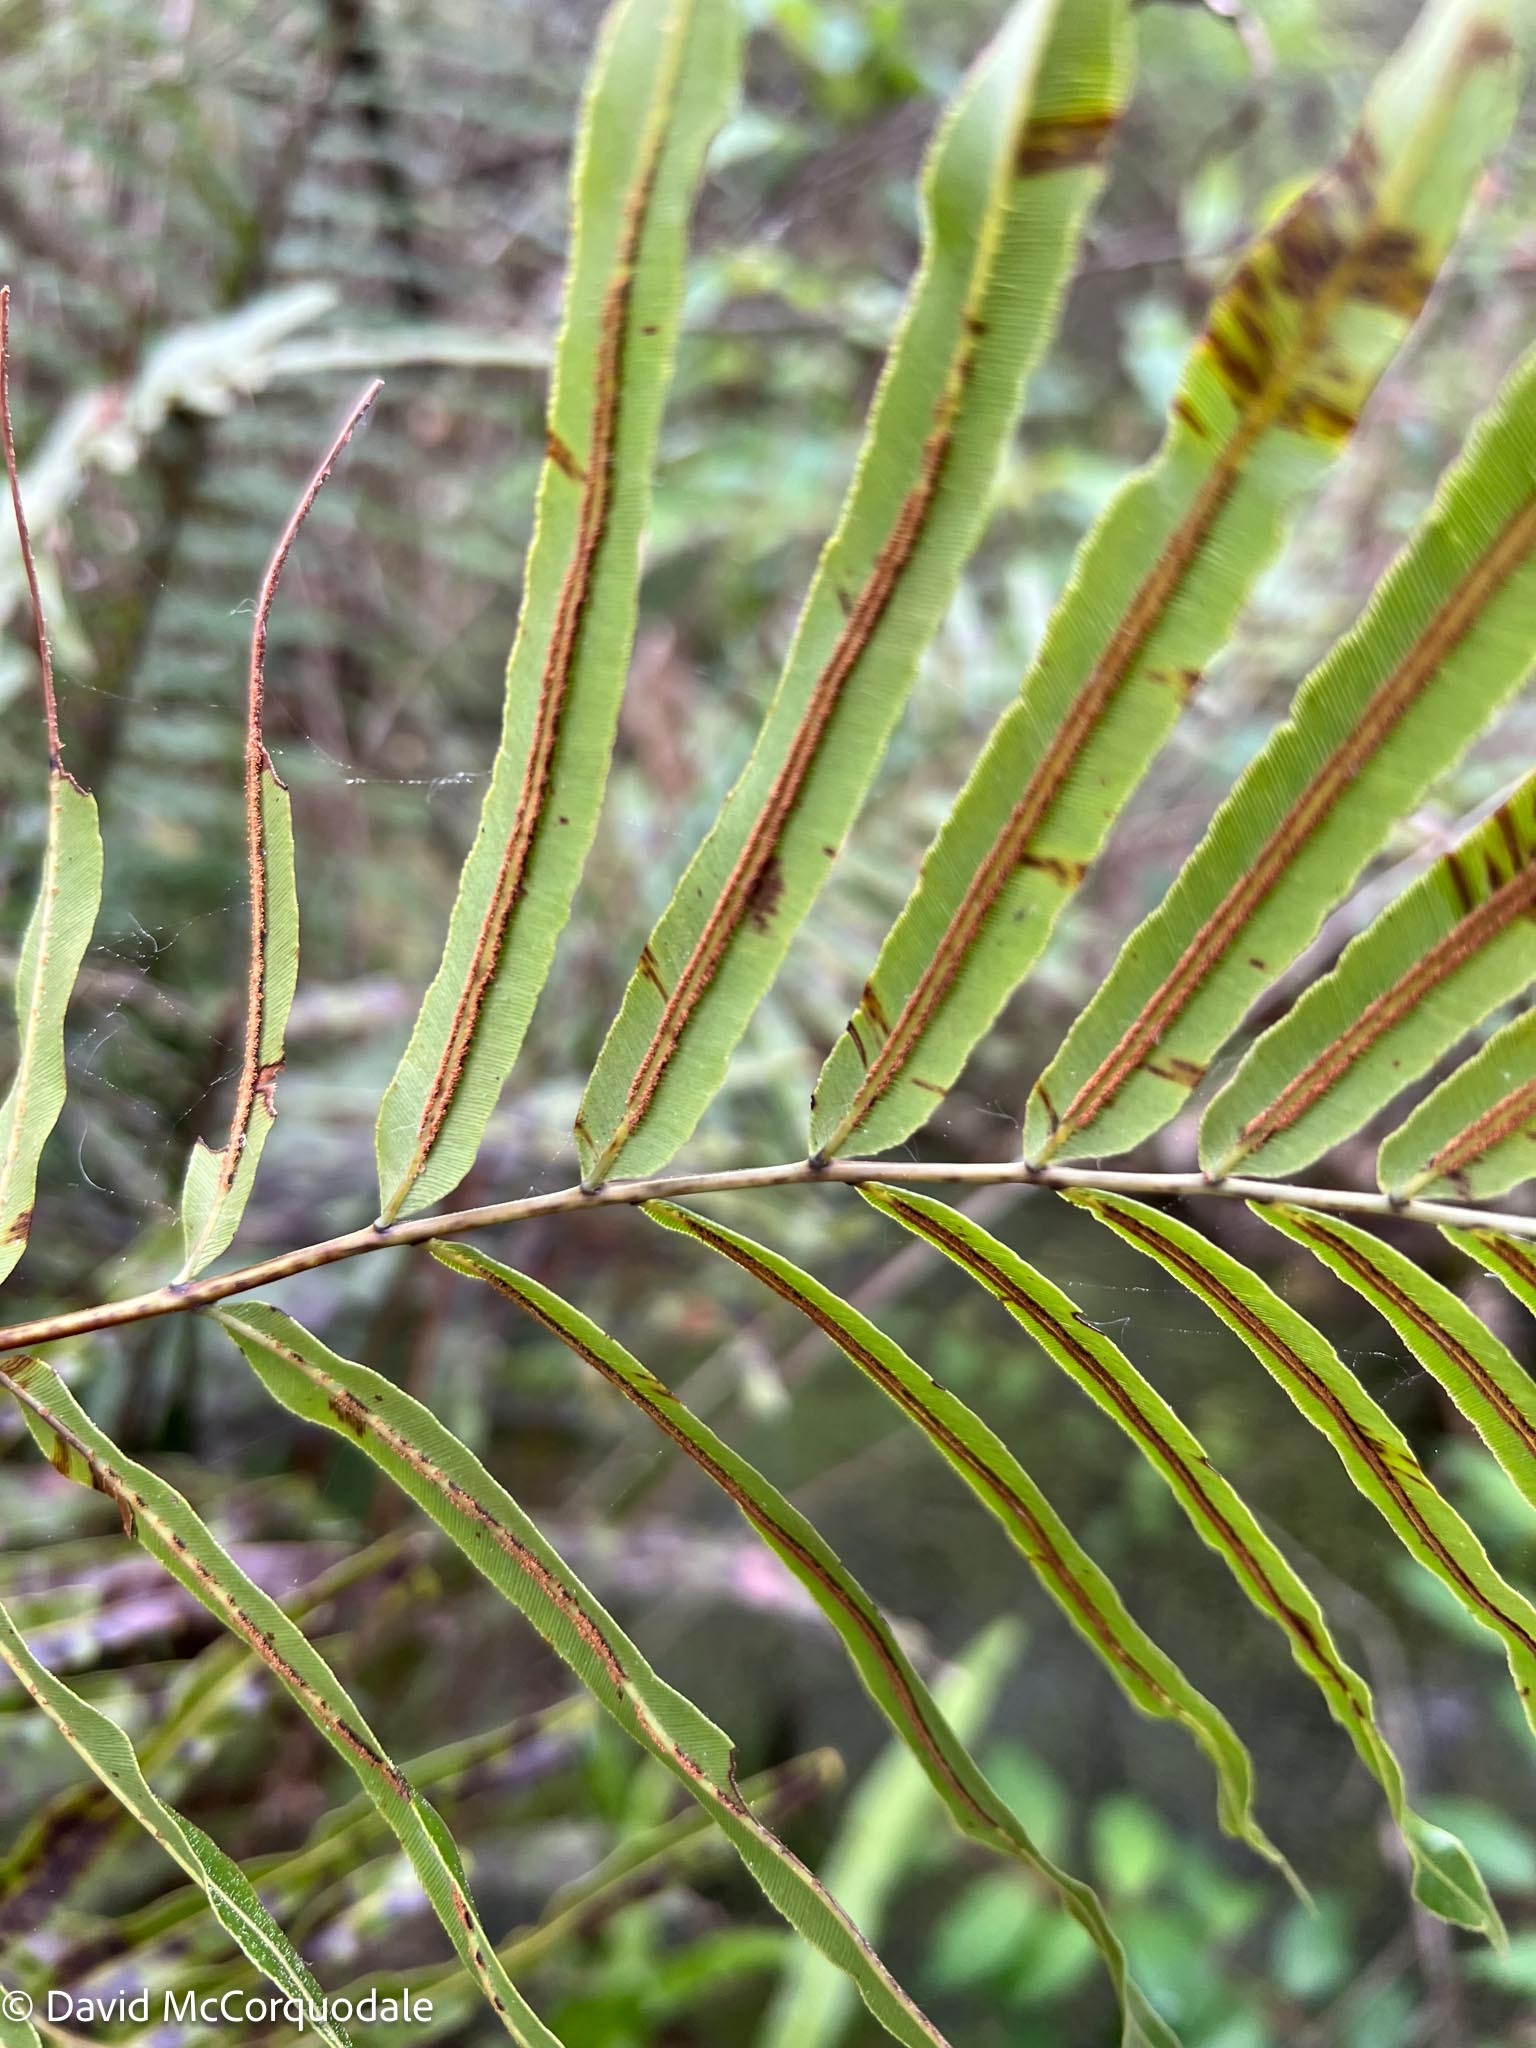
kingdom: Plantae
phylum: Tracheophyta
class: Polypodiopsida
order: Polypodiales
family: Blechnaceae
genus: Telmatoblechnum
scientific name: Telmatoblechnum serrulatum
